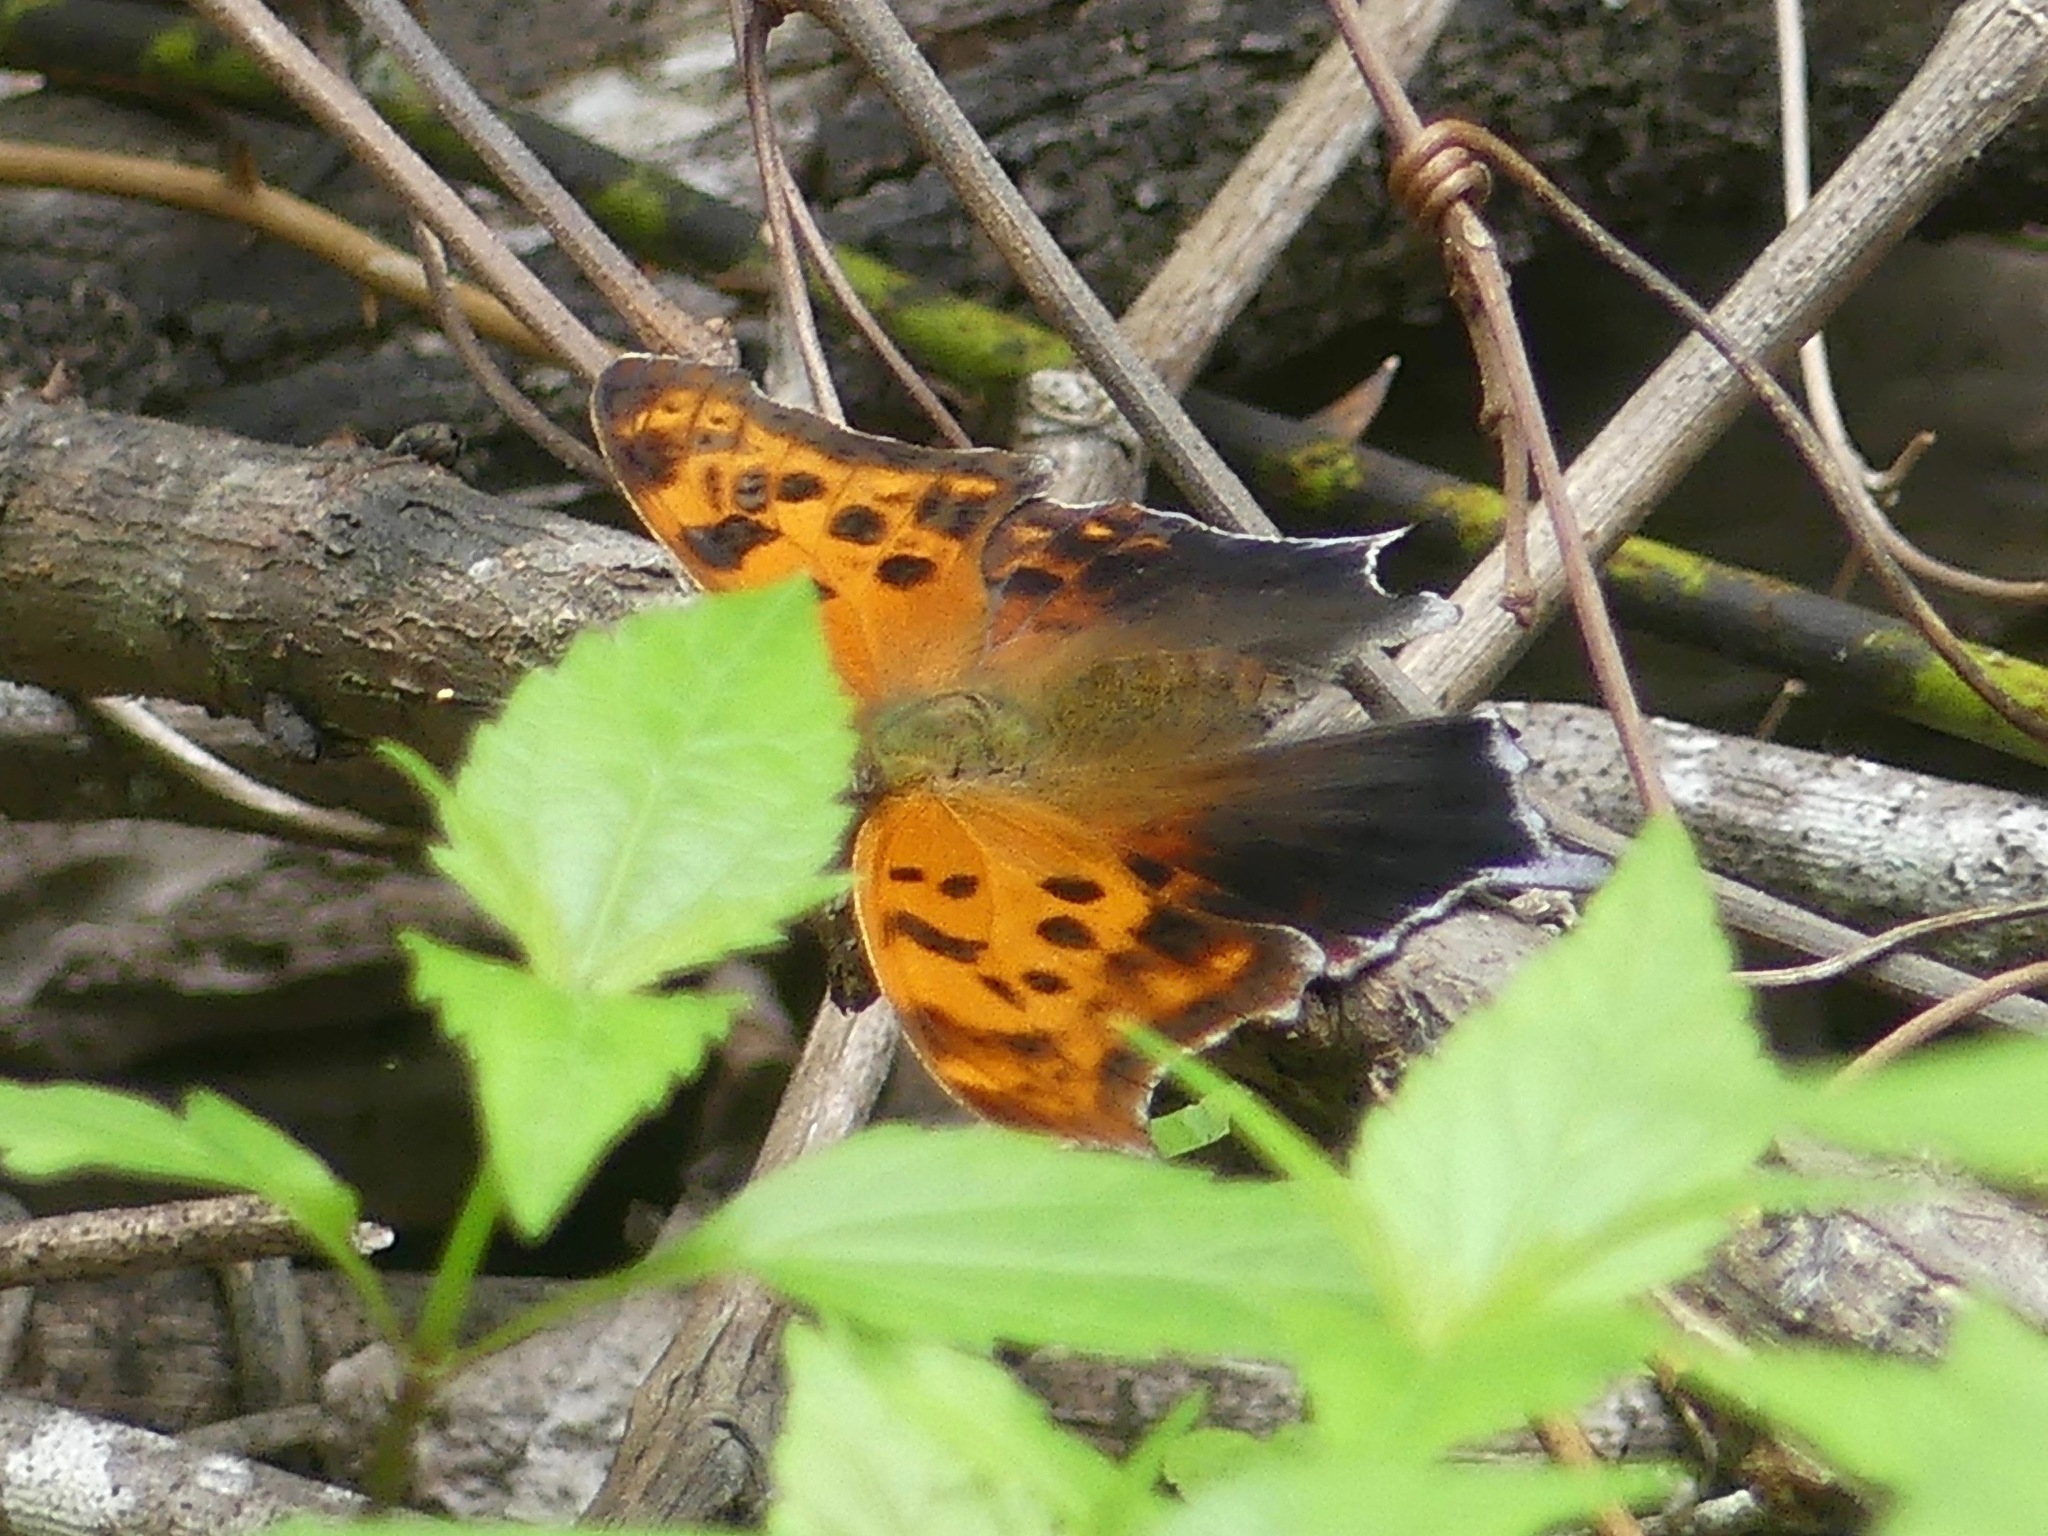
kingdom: Animalia
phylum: Arthropoda
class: Insecta
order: Lepidoptera
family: Nymphalidae
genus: Polygonia
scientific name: Polygonia interrogationis
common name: Question mark
